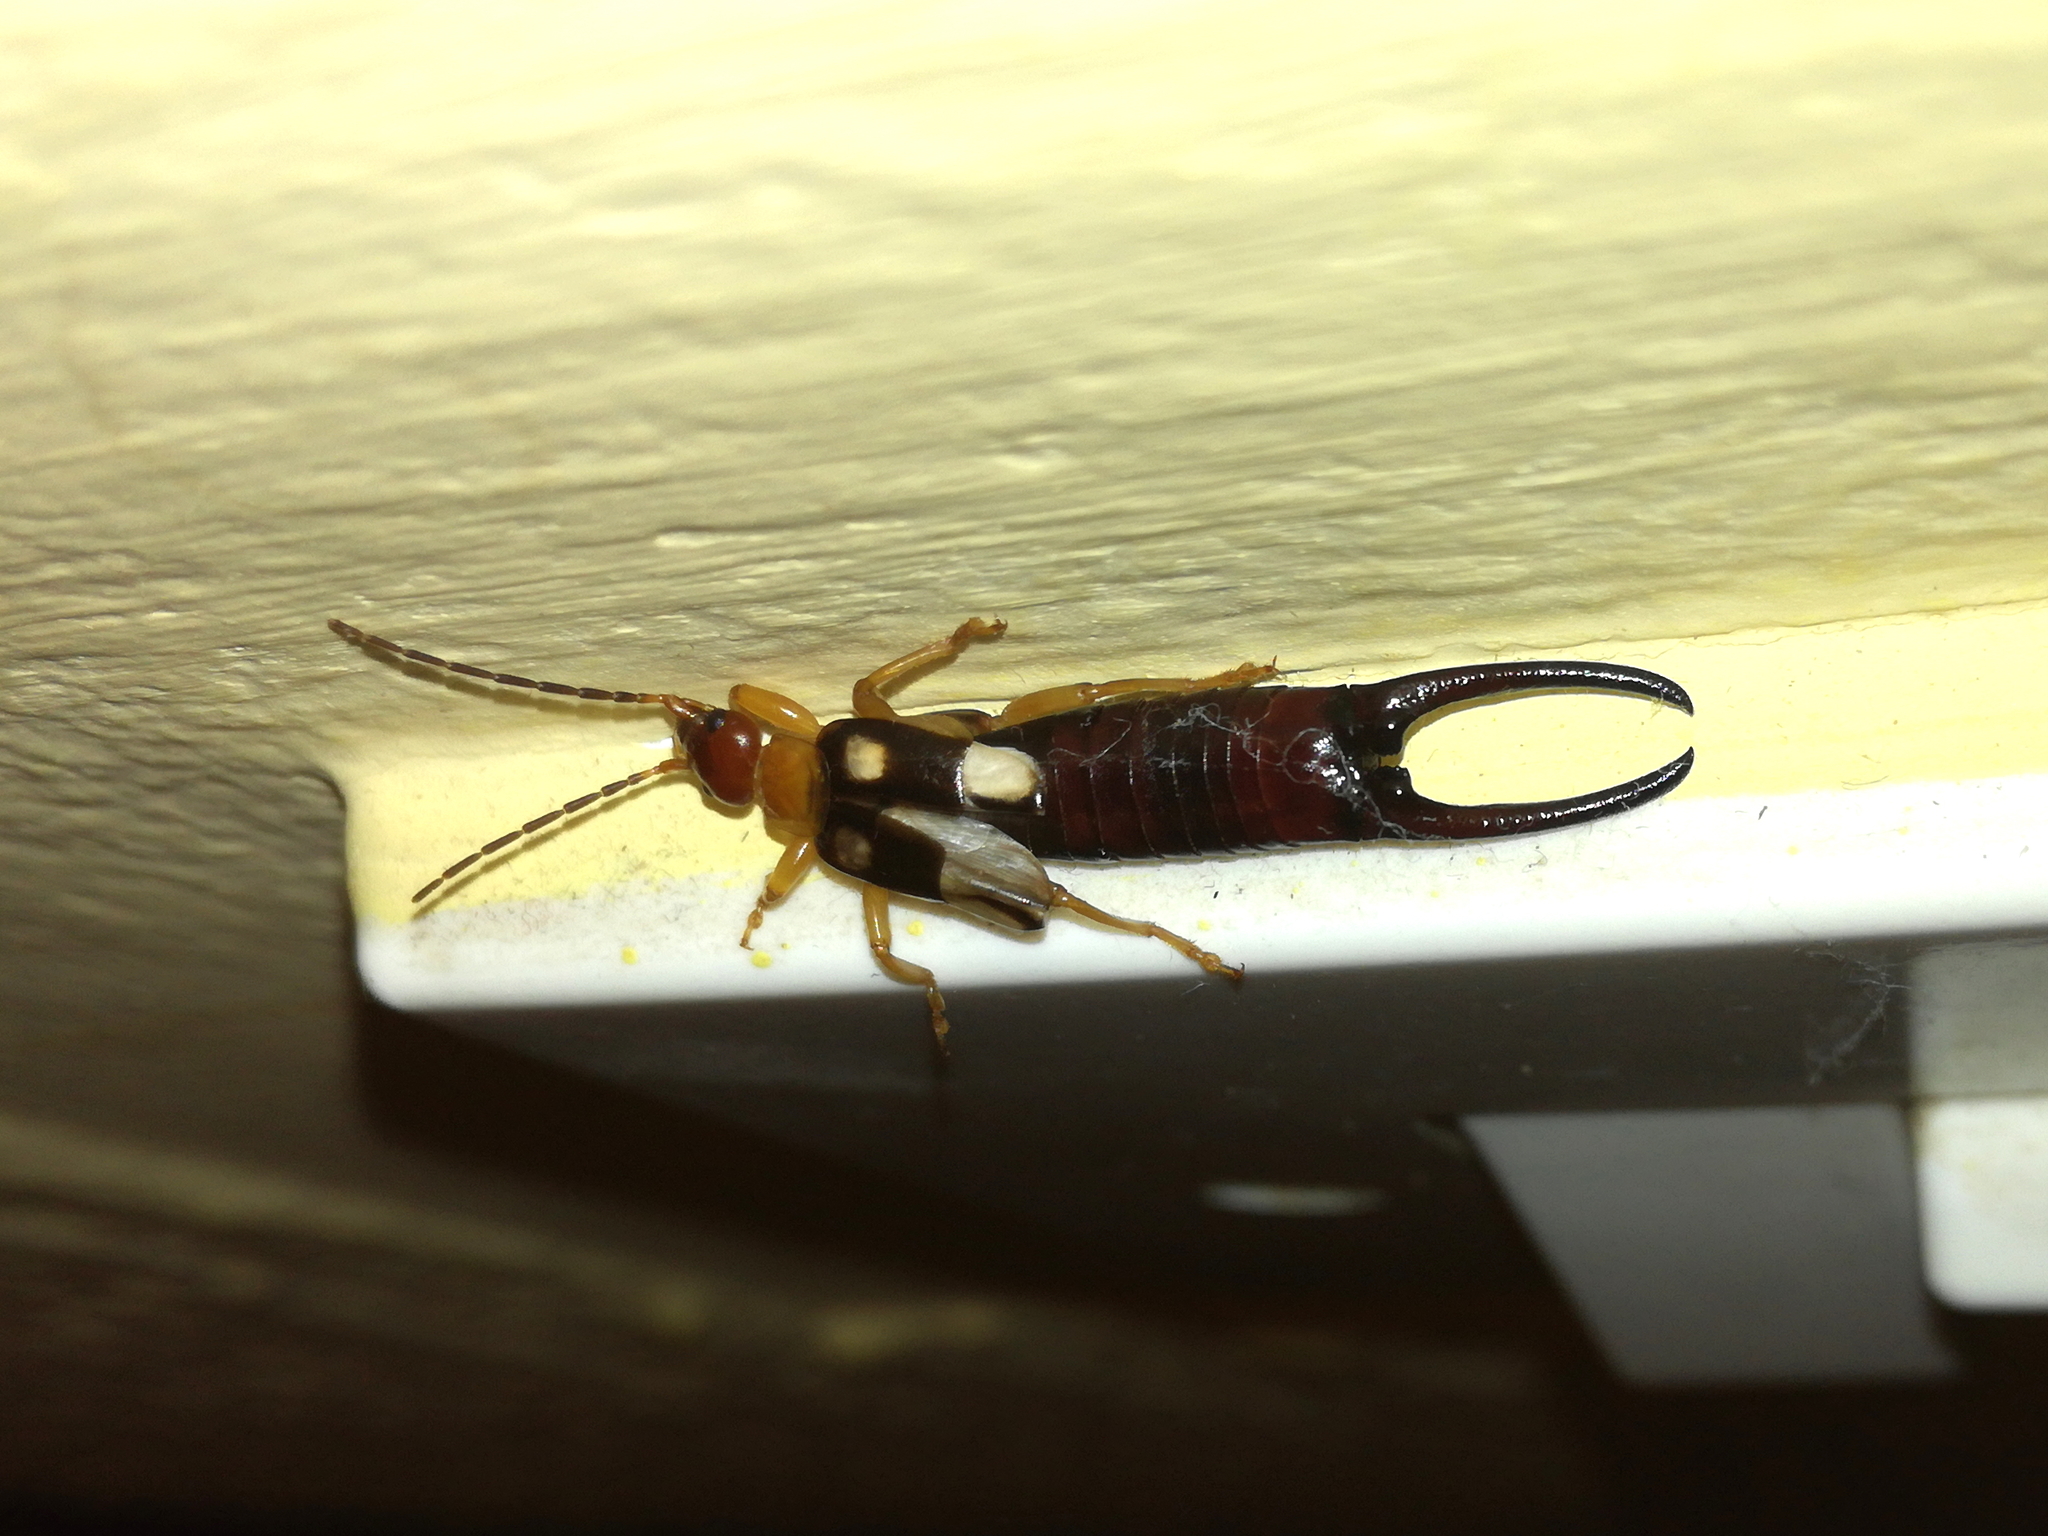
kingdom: Animalia
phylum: Arthropoda
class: Insecta
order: Dermaptera
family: Forficulidae
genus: Forficula
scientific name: Forficula smyrnensis
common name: Smyrna earwig
